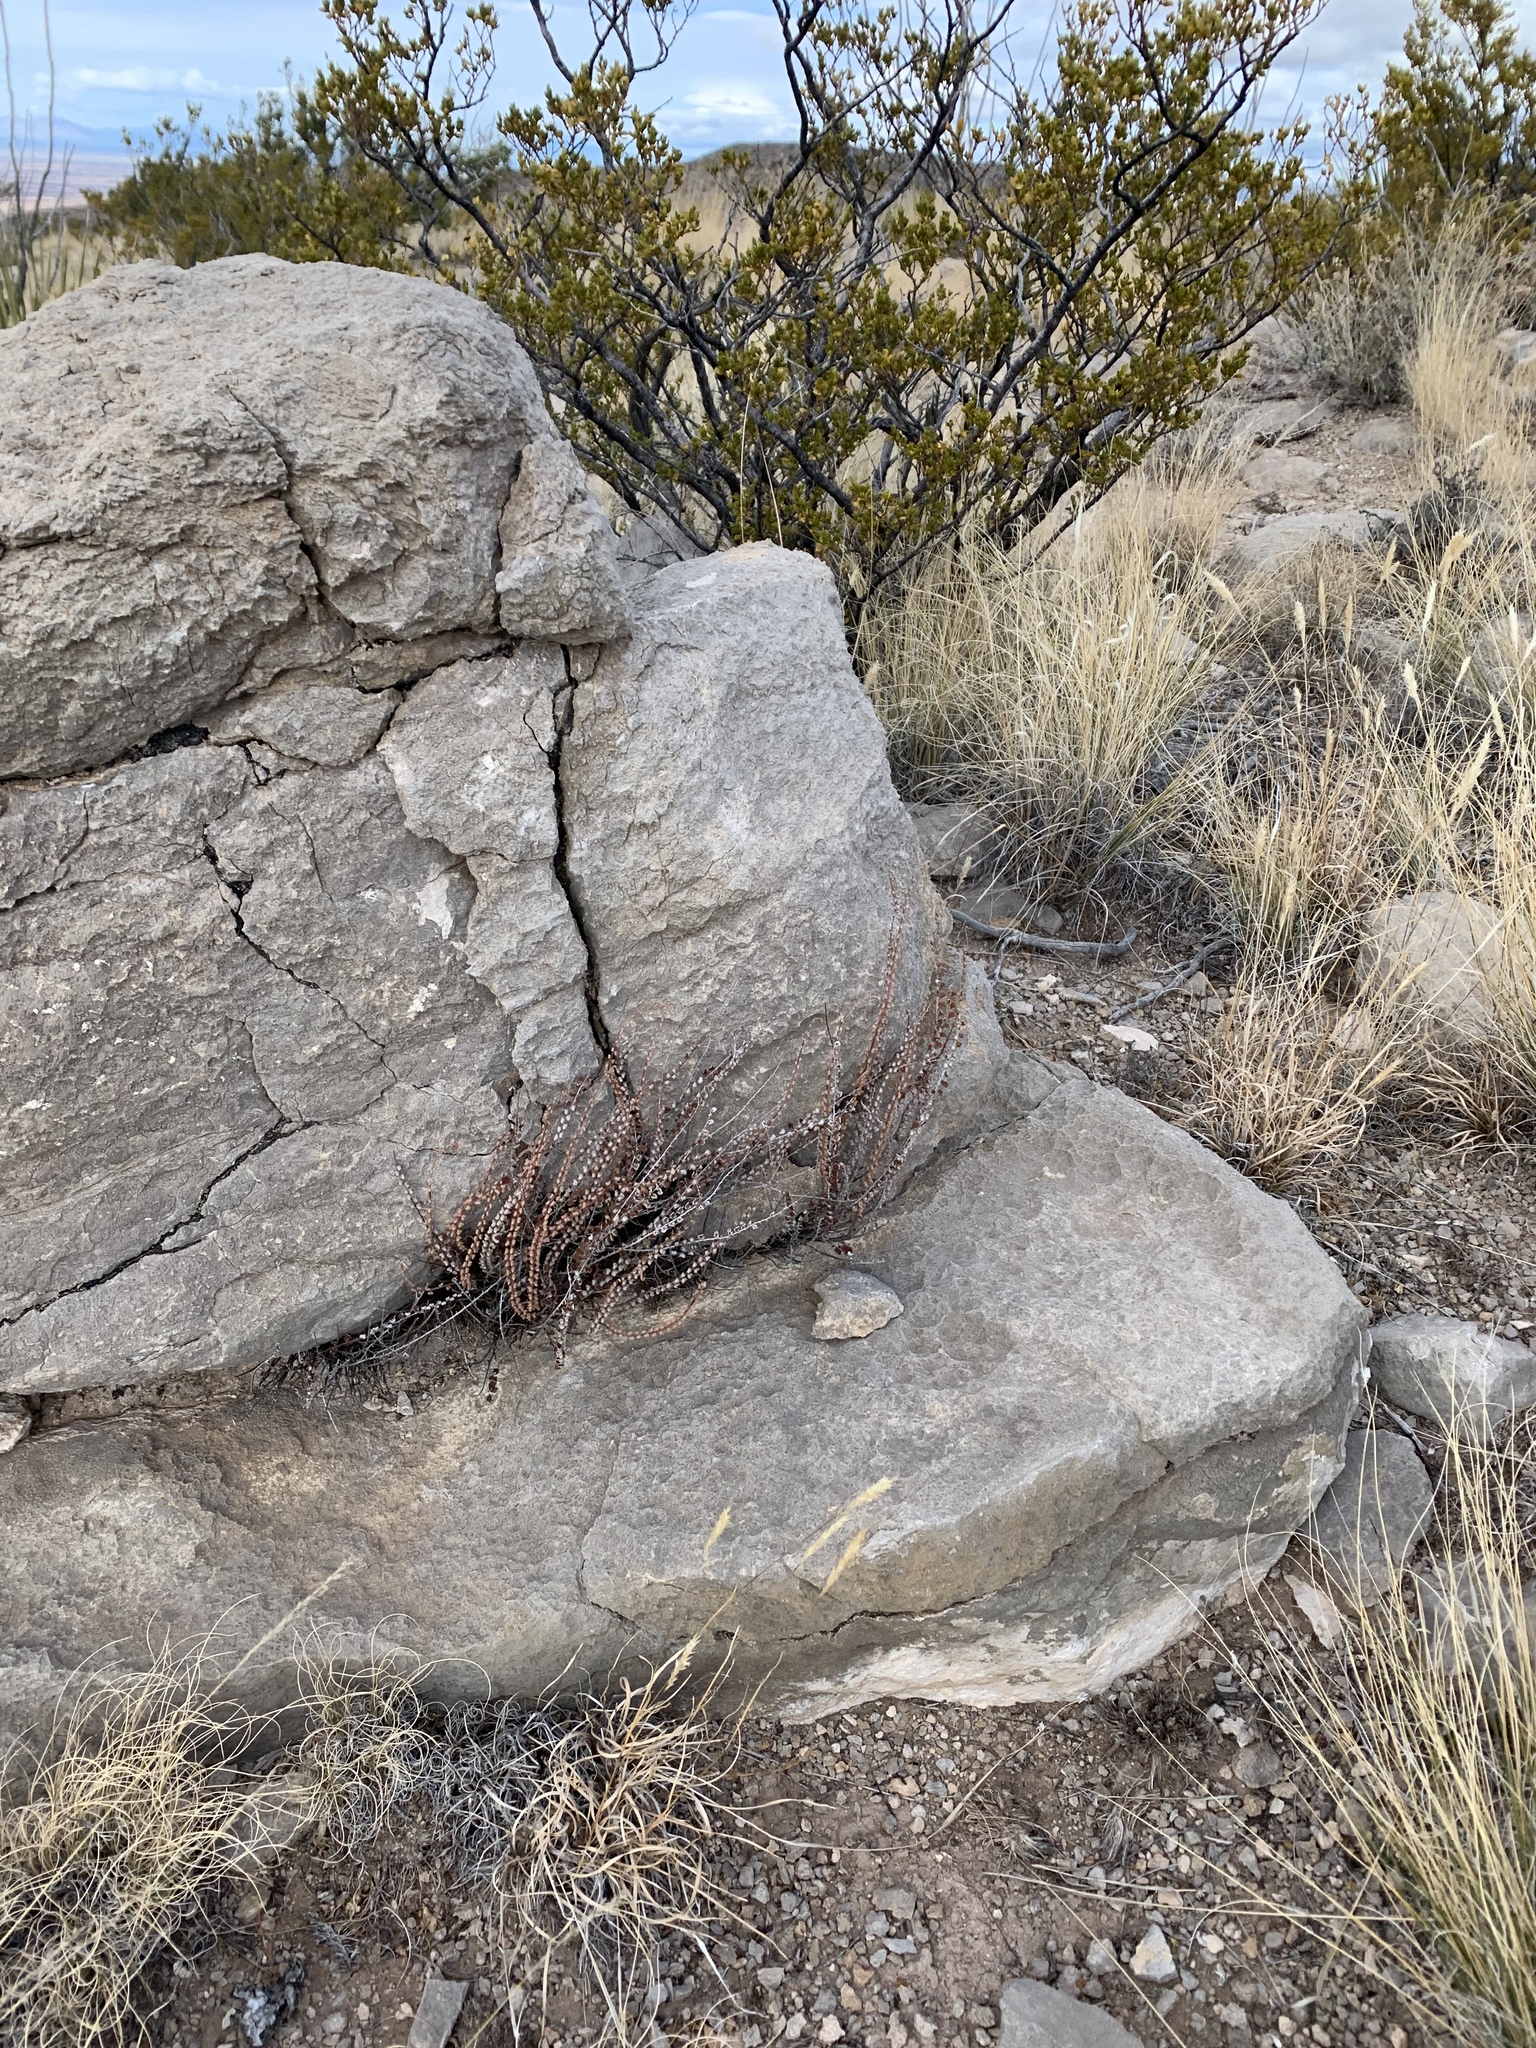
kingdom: Plantae
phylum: Tracheophyta
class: Polypodiopsida
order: Polypodiales
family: Pteridaceae
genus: Astrolepis
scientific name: Astrolepis cochisensis
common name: Scaly cloak fern
